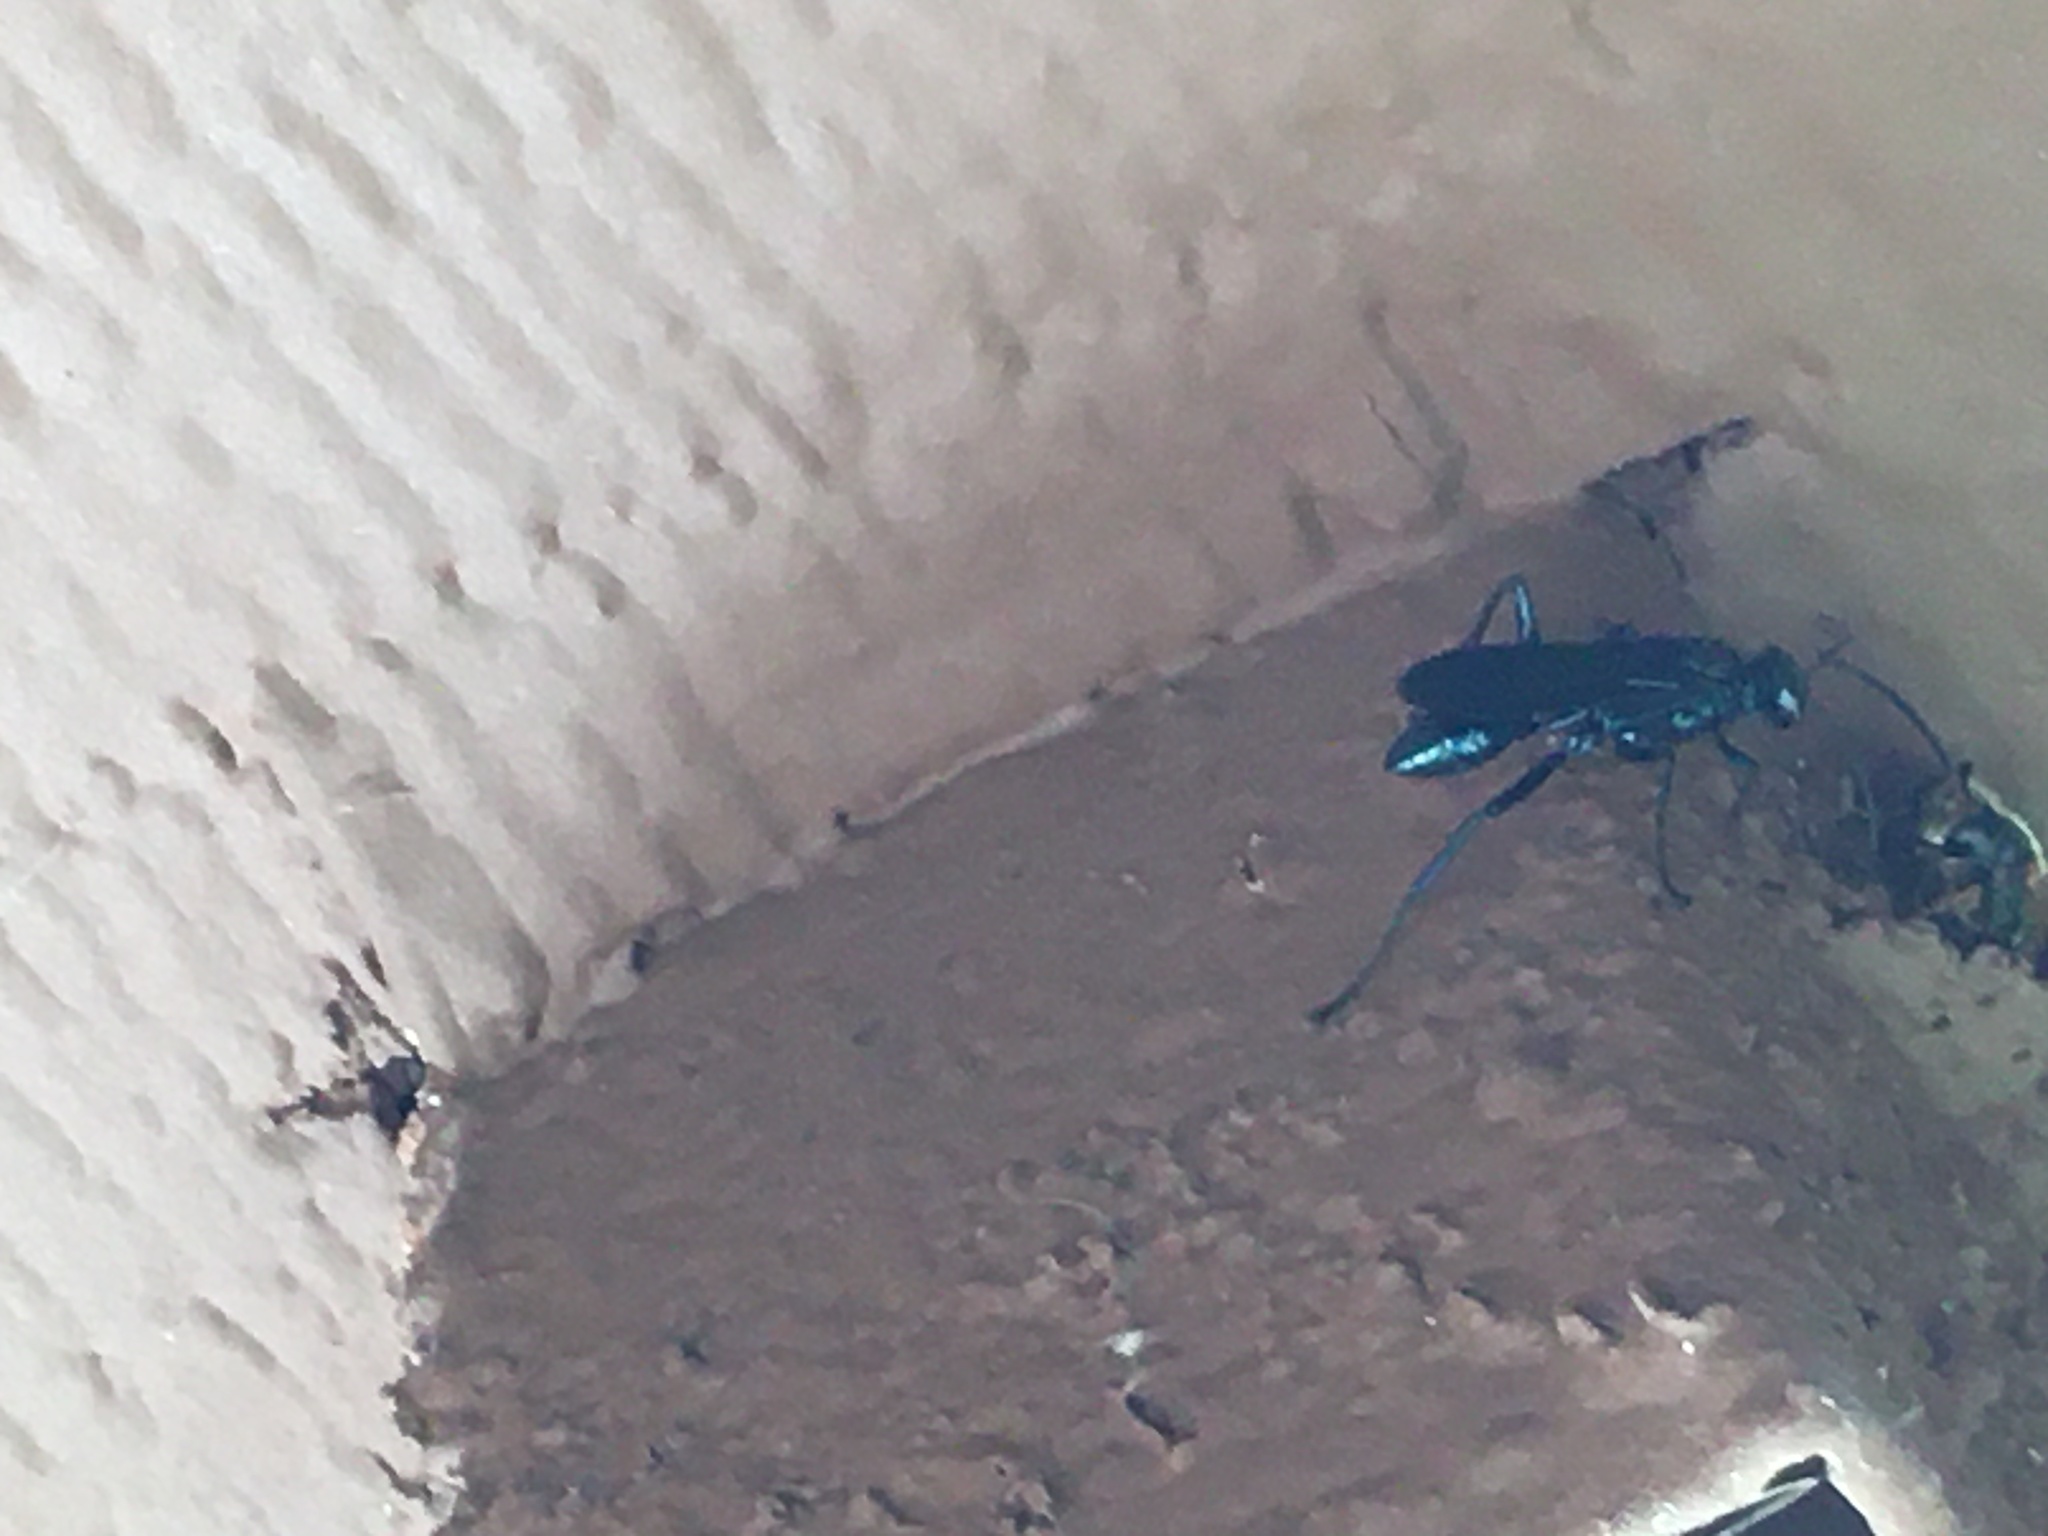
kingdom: Animalia
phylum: Arthropoda
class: Insecta
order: Hymenoptera
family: Sphecidae
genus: Chalybion
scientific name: Chalybion californicum
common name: Mud dauber
